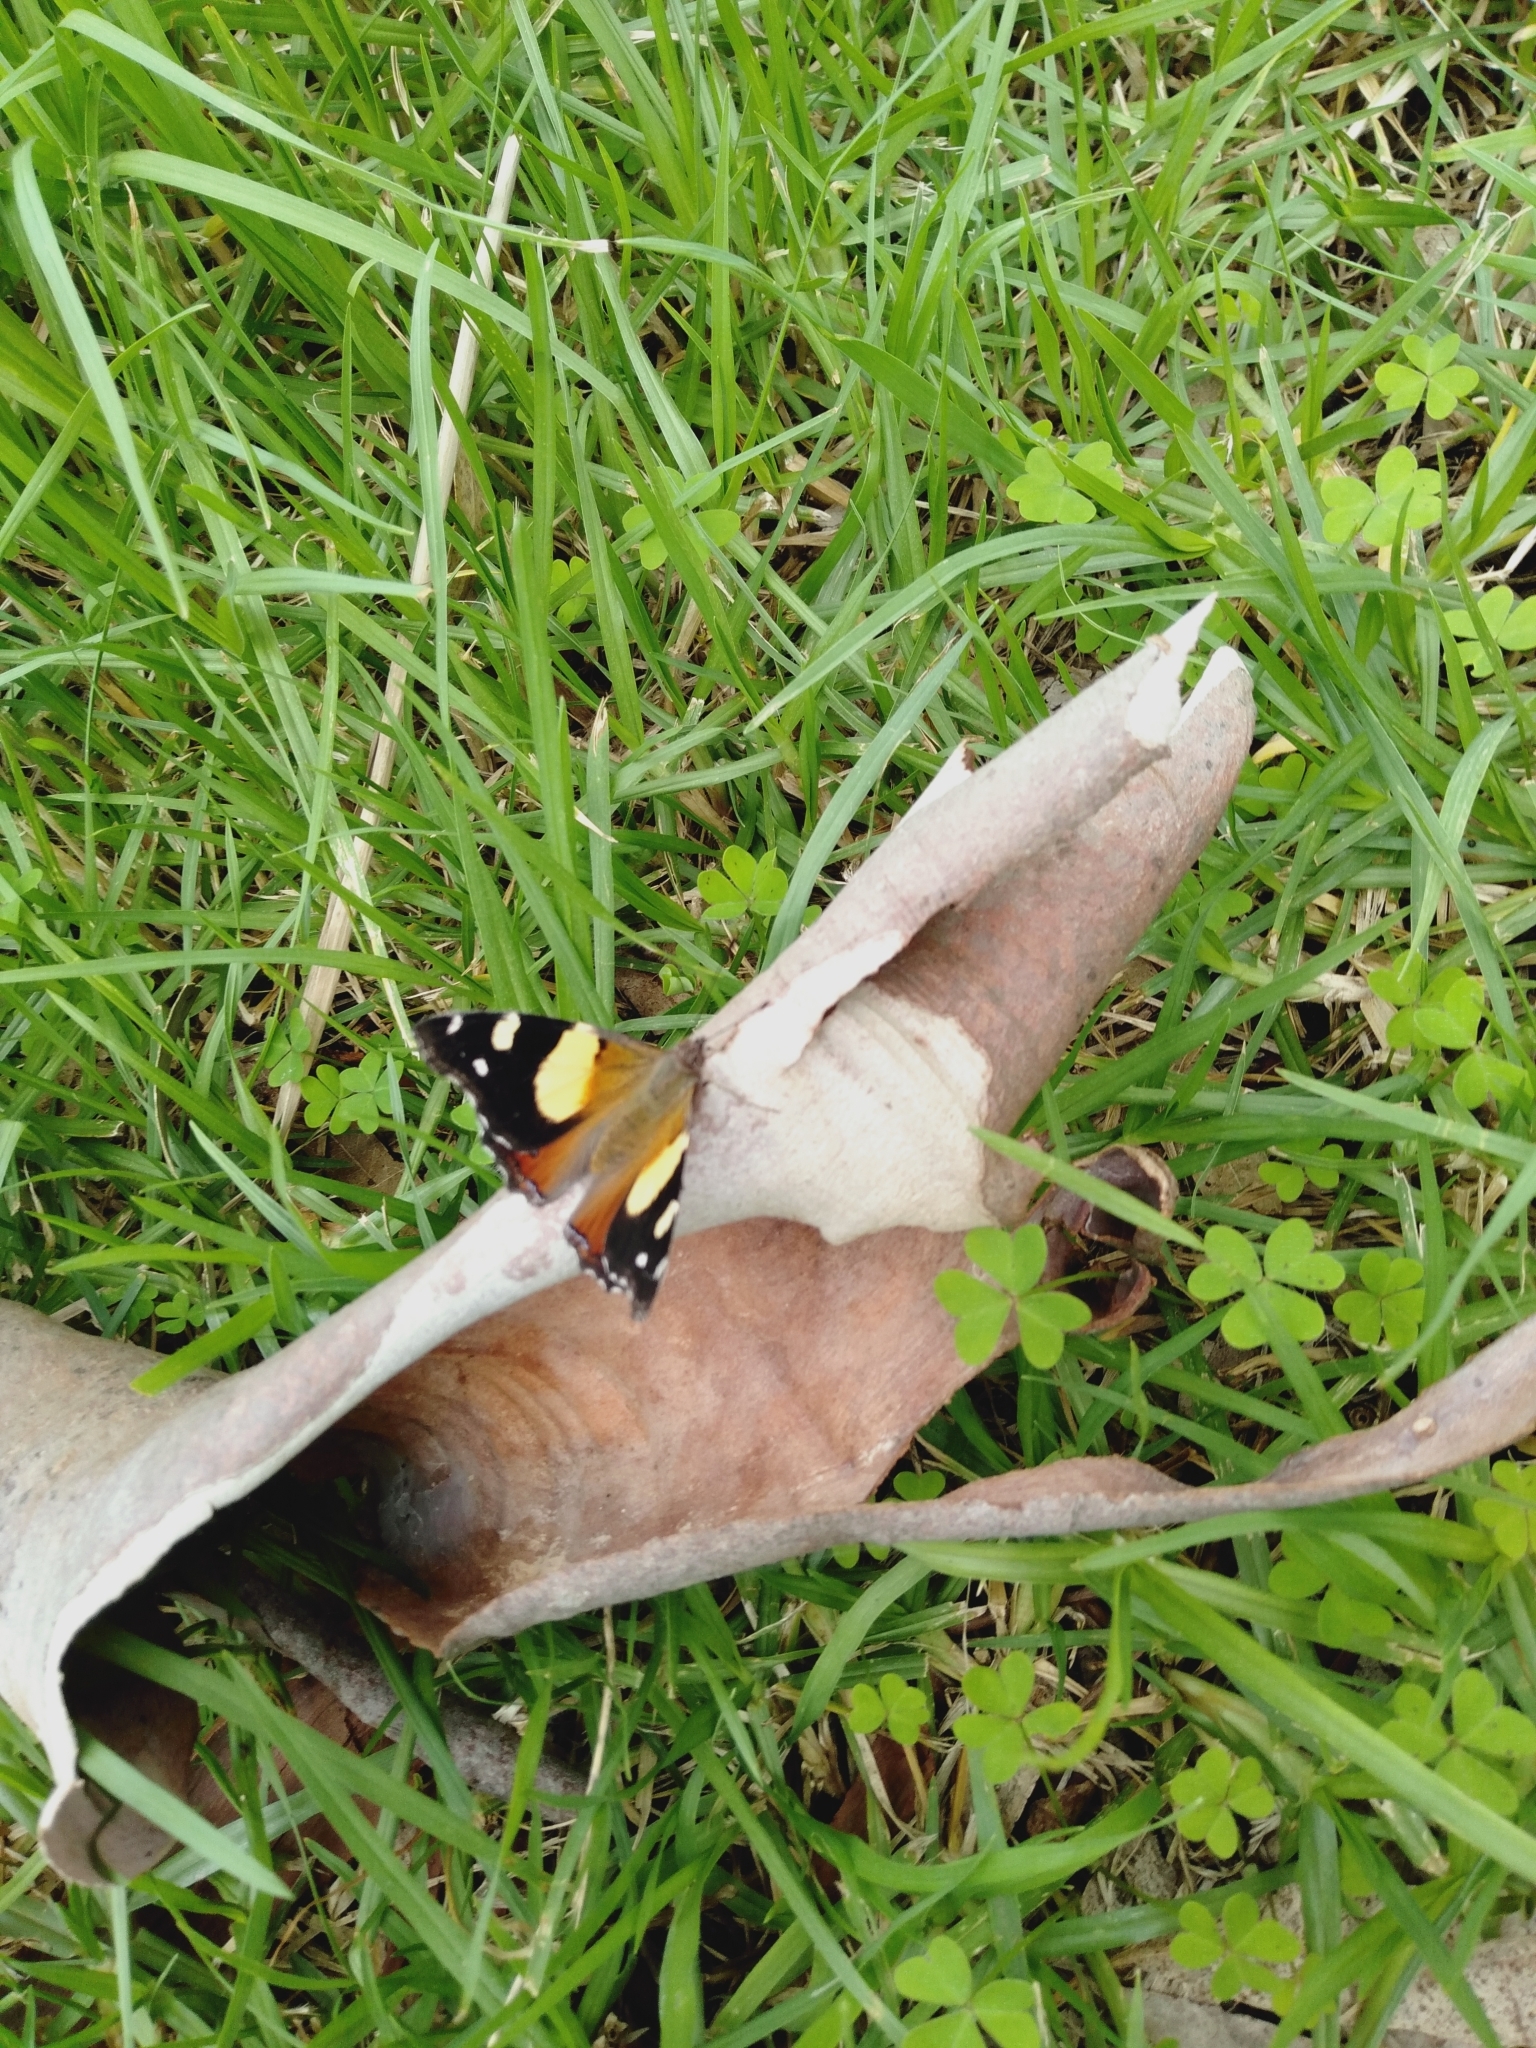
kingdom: Animalia
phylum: Arthropoda
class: Insecta
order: Lepidoptera
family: Nymphalidae
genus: Vanessa
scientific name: Vanessa itea
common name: Yellow admiral
